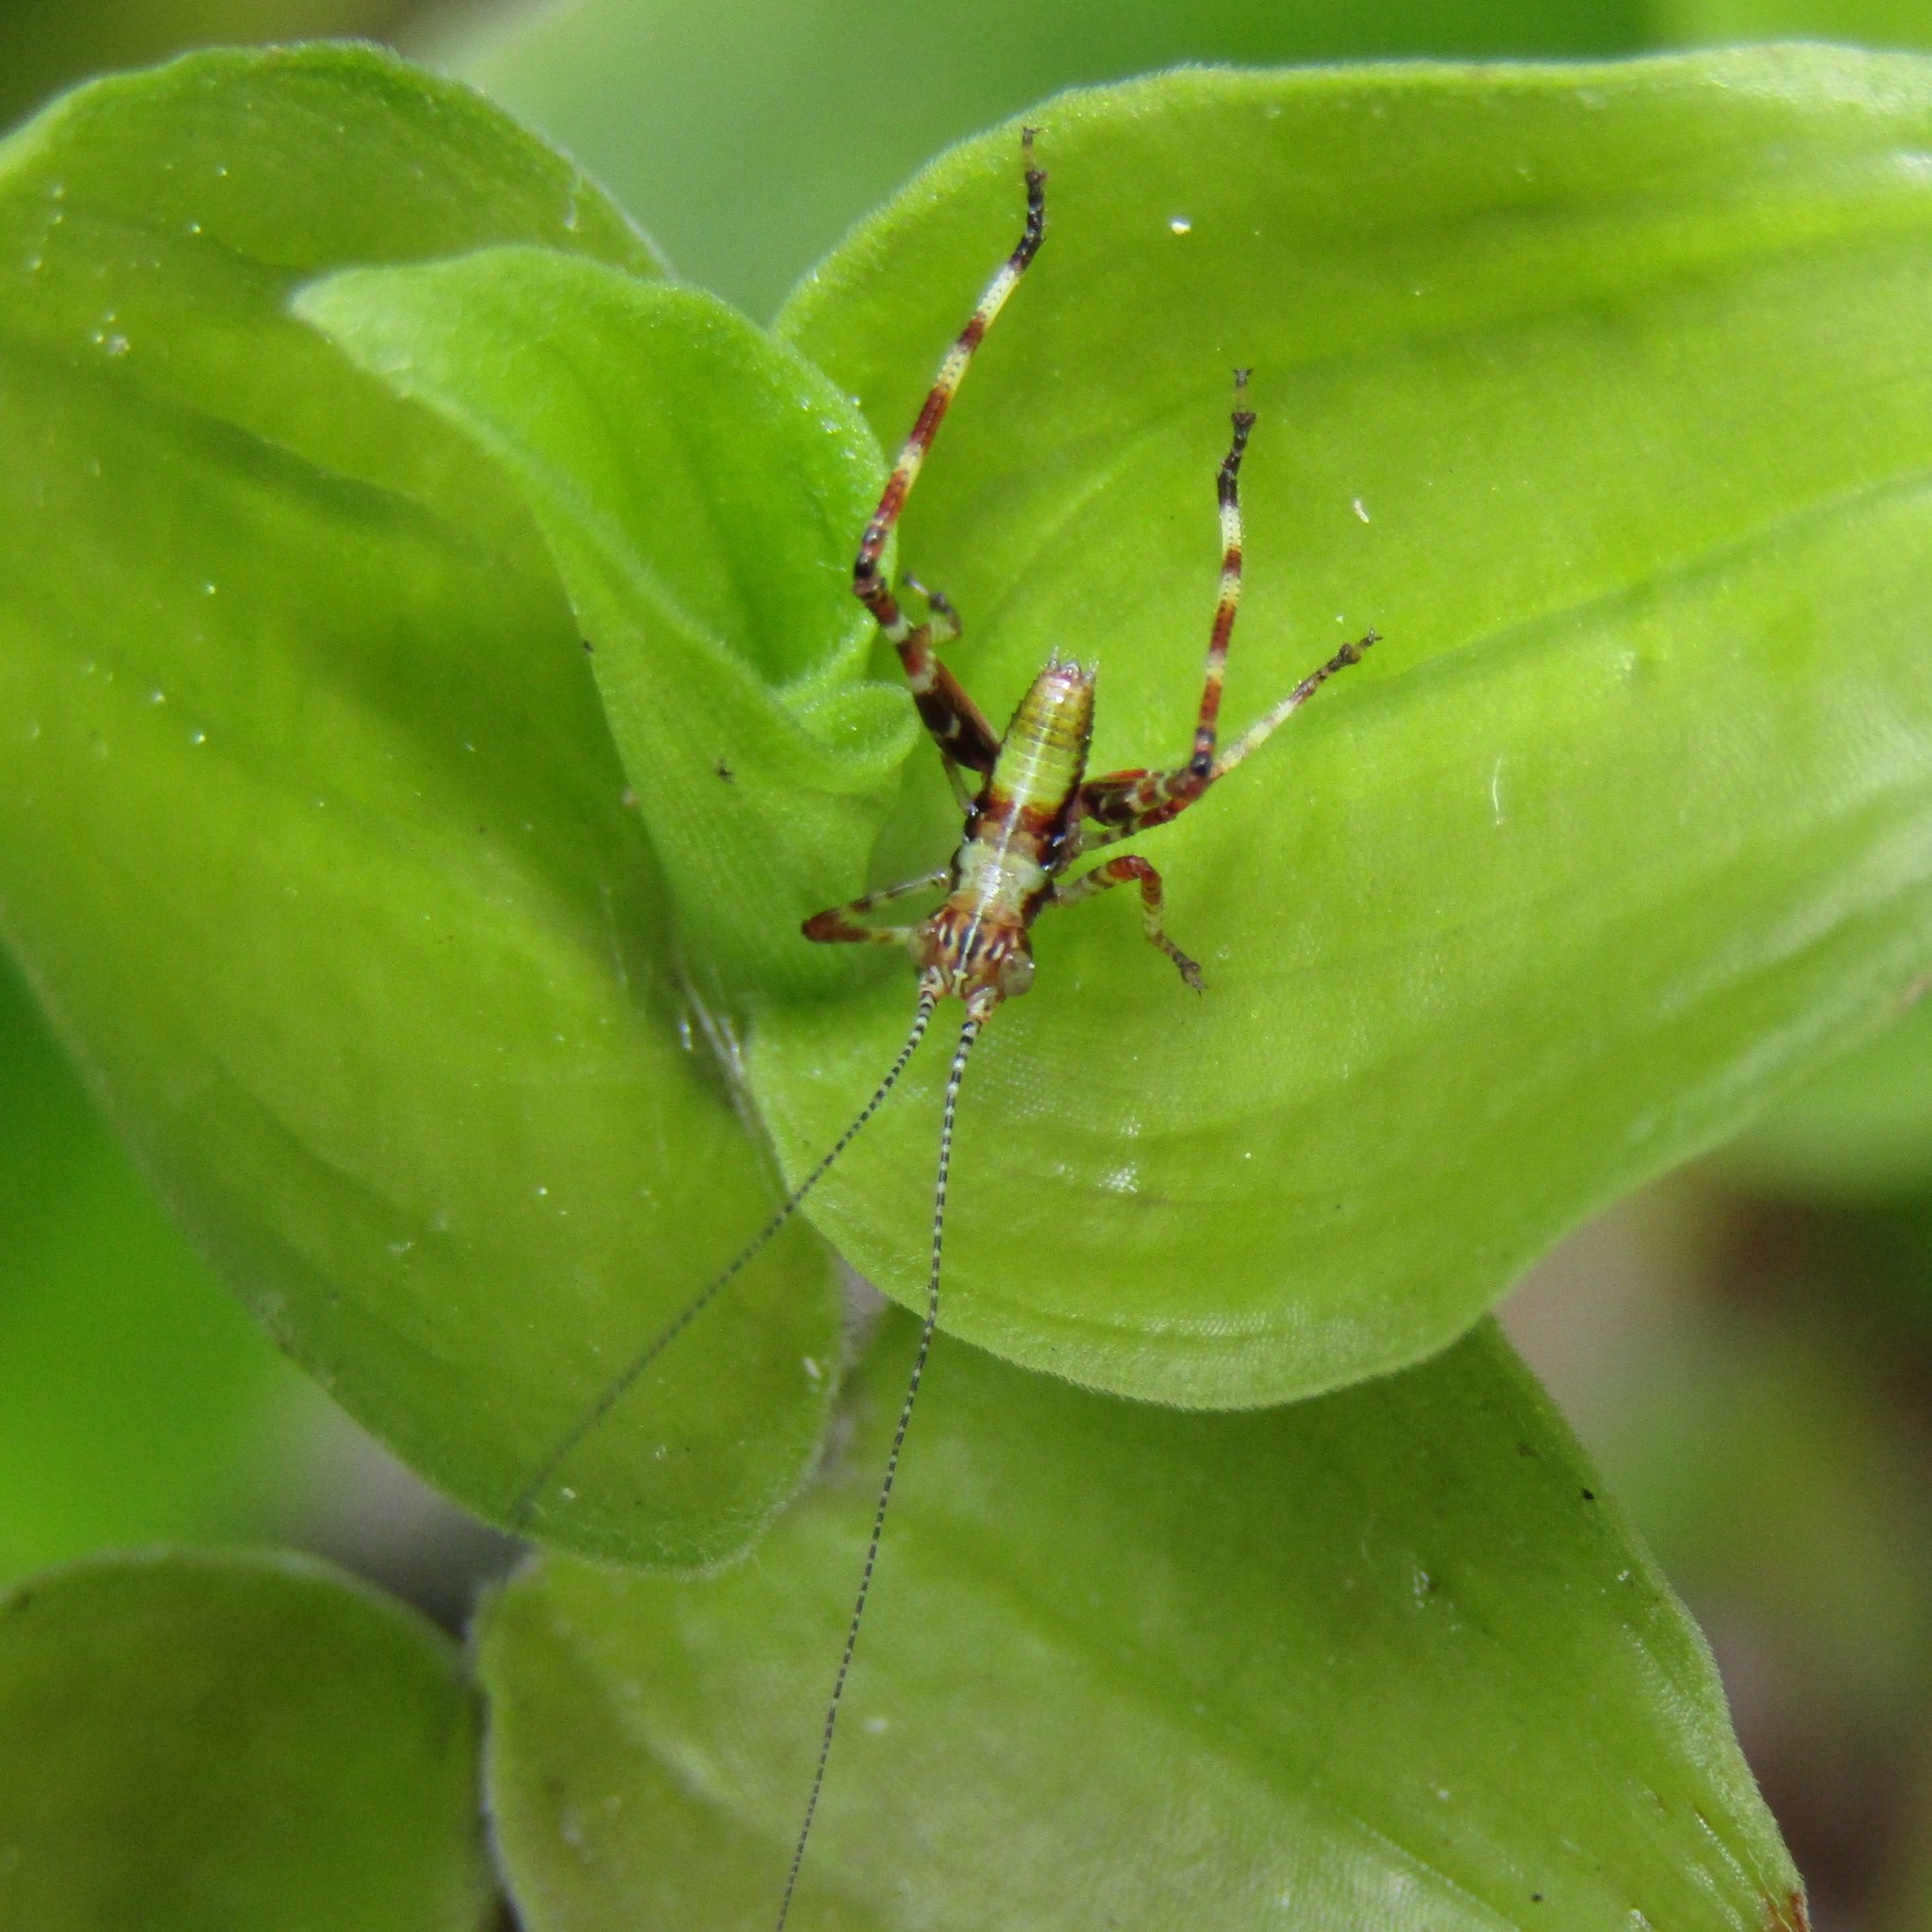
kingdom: Animalia
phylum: Arthropoda
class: Insecta
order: Orthoptera
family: Tettigoniidae
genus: Caedicia
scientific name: Caedicia simplex
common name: Common garden katydid
